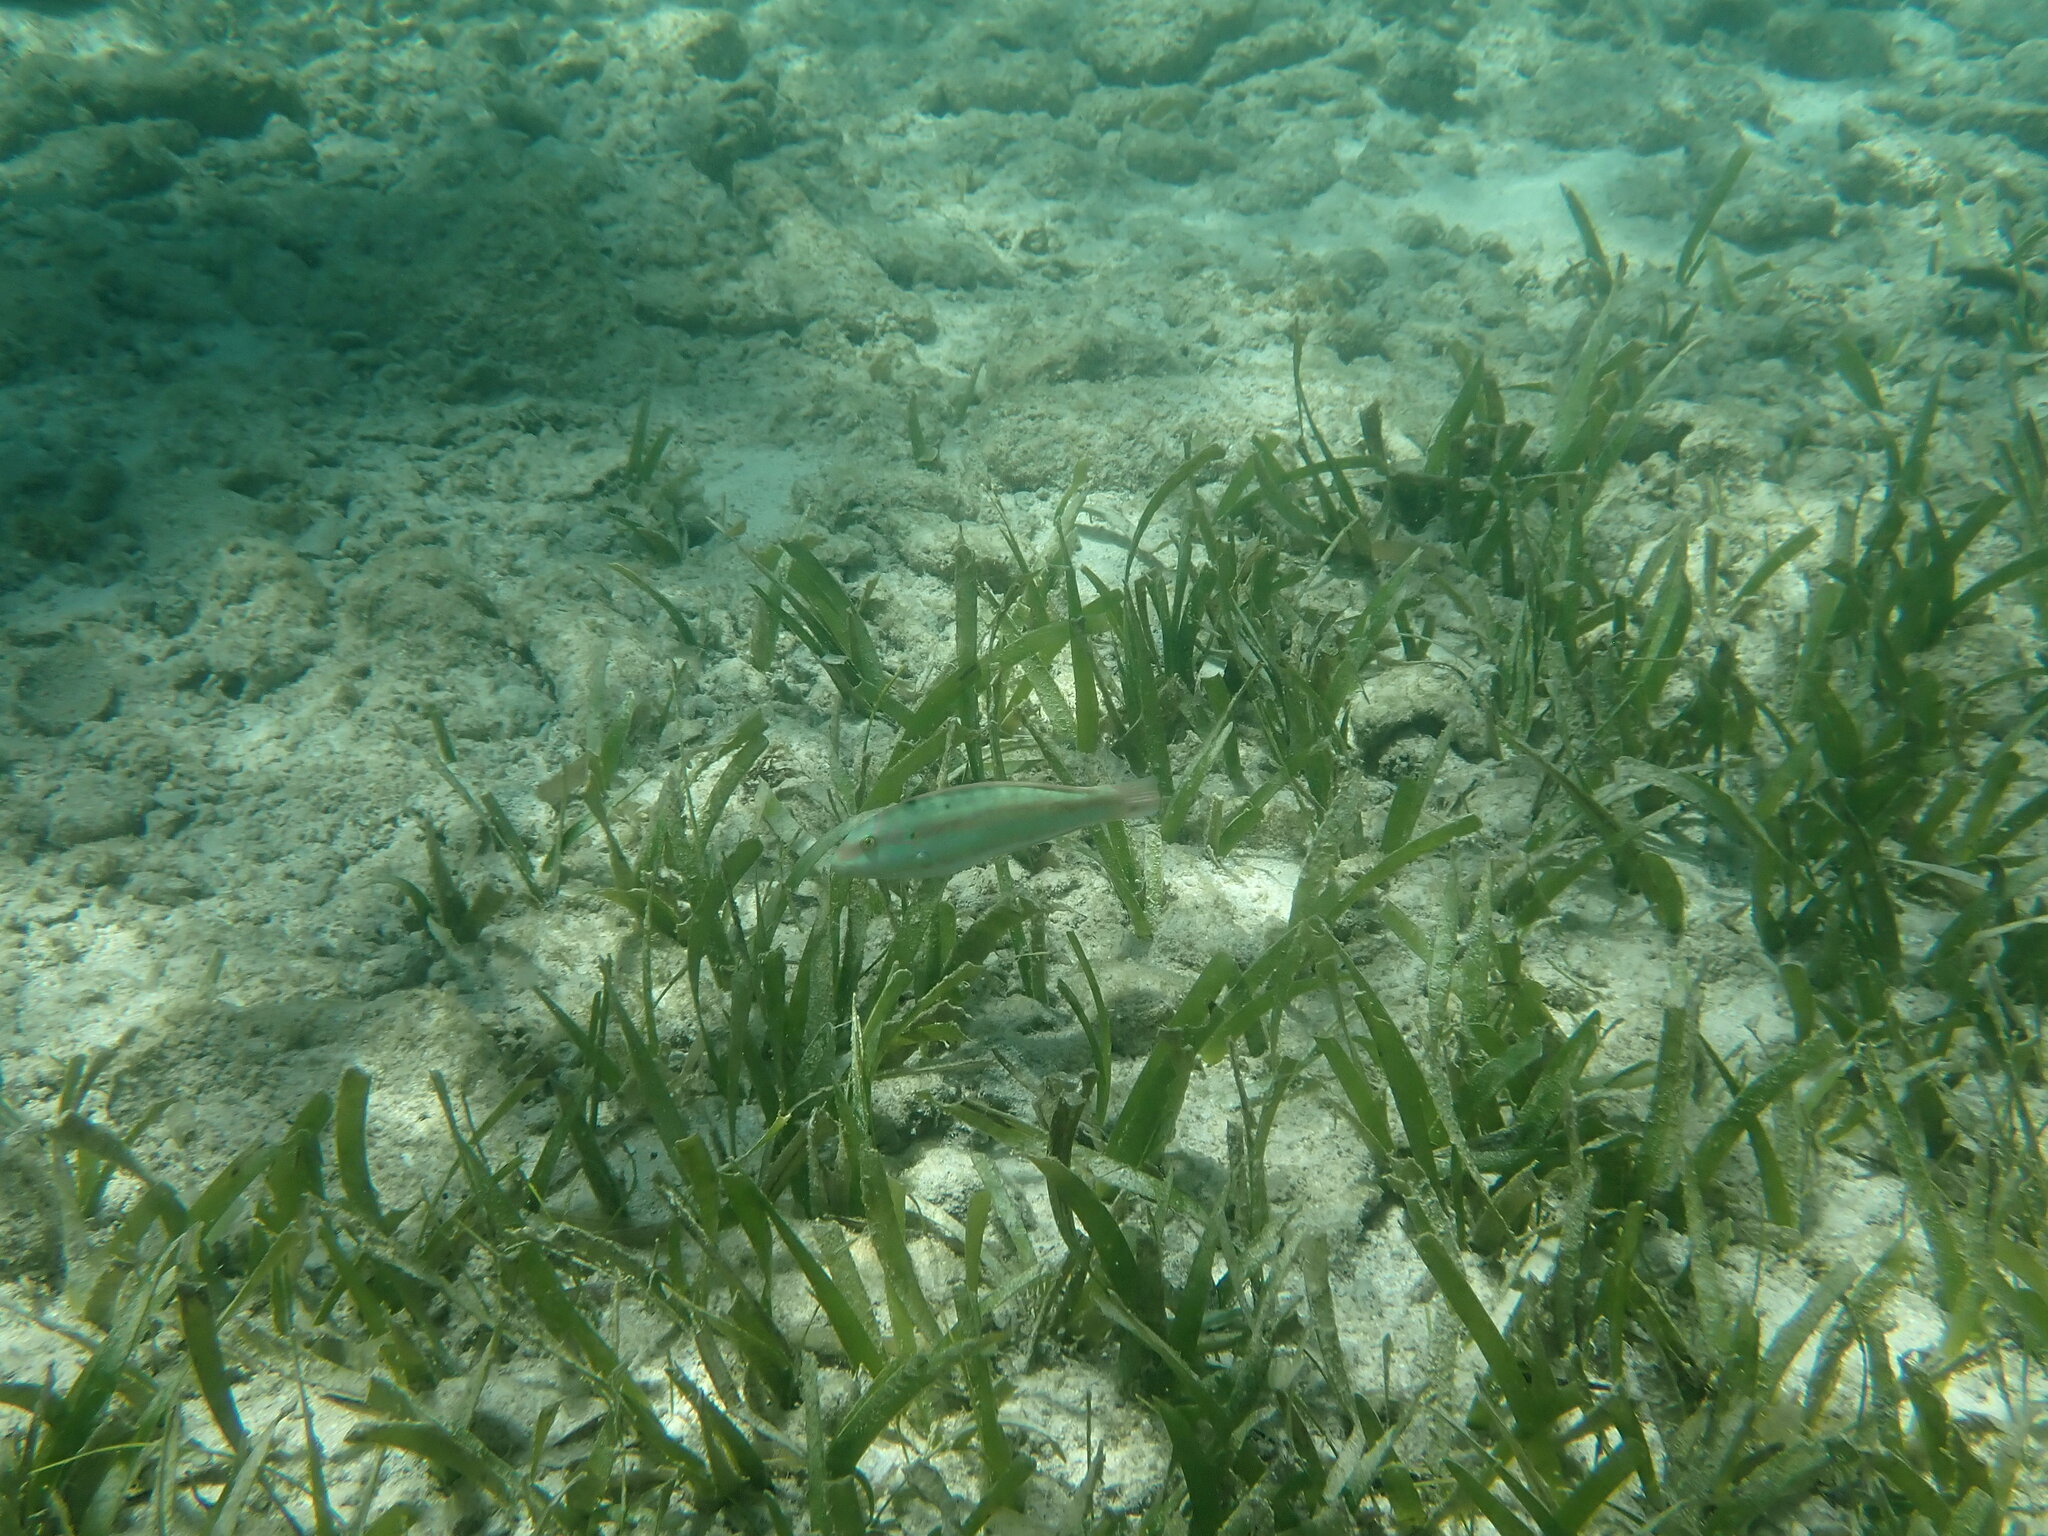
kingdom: Animalia
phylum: Chordata
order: Perciformes
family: Labridae
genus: Halichoeres
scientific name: Halichoeres bivittatus
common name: Slippery dick
